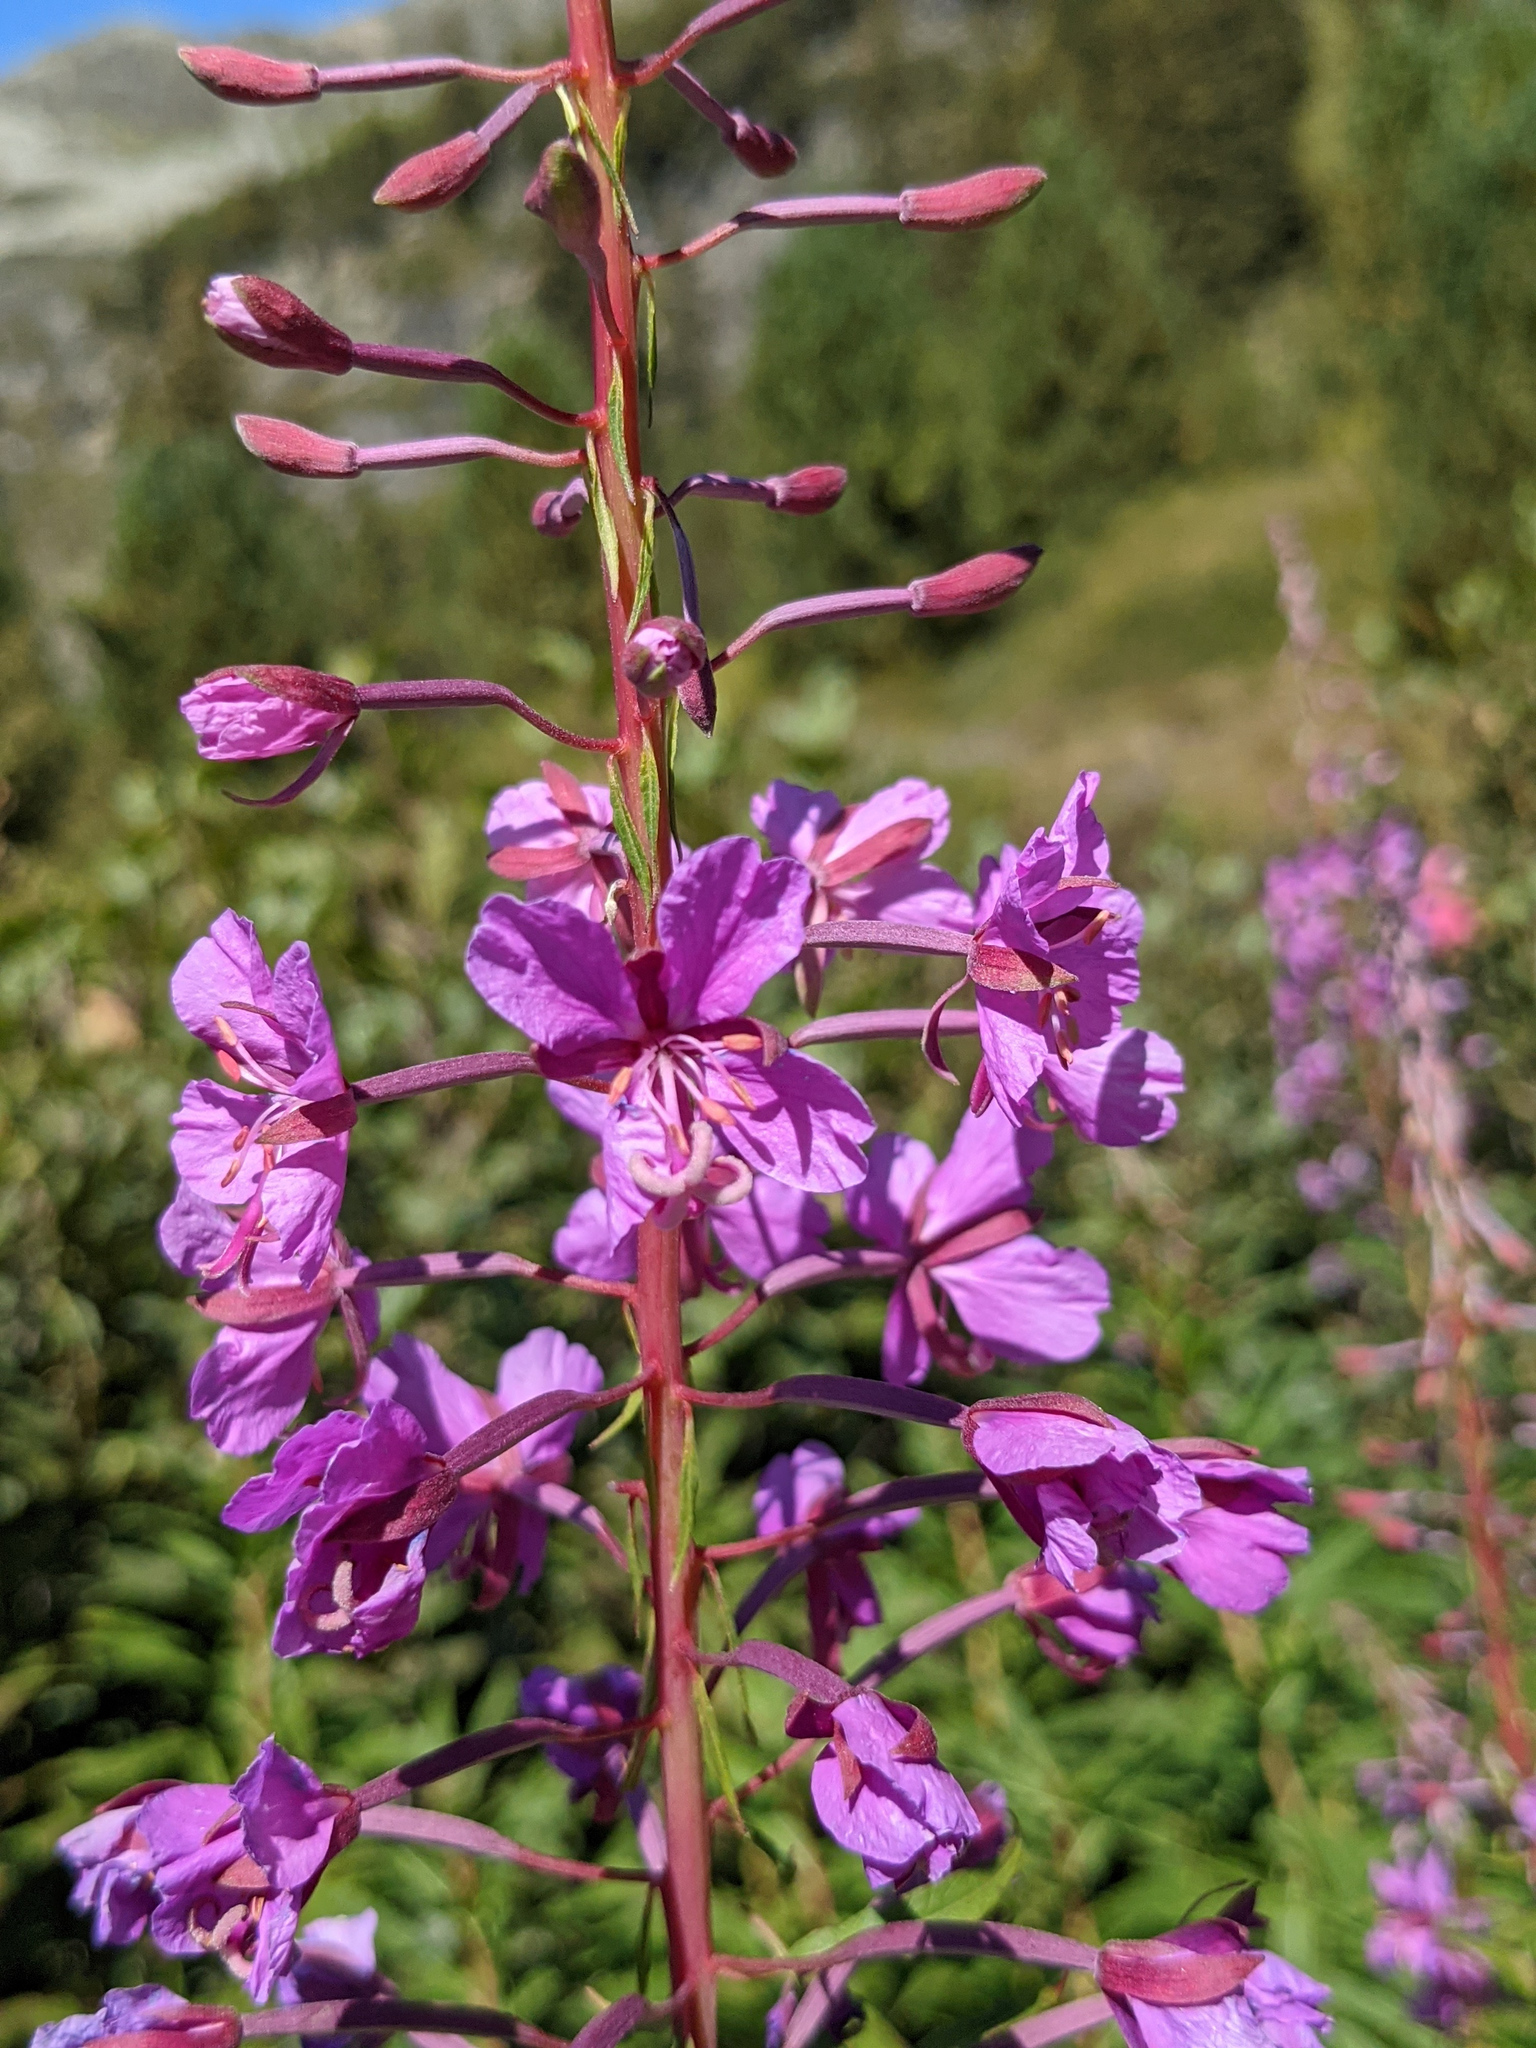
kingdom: Plantae
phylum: Tracheophyta
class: Magnoliopsida
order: Myrtales
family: Onagraceae
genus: Chamaenerion
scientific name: Chamaenerion angustifolium
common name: Fireweed
